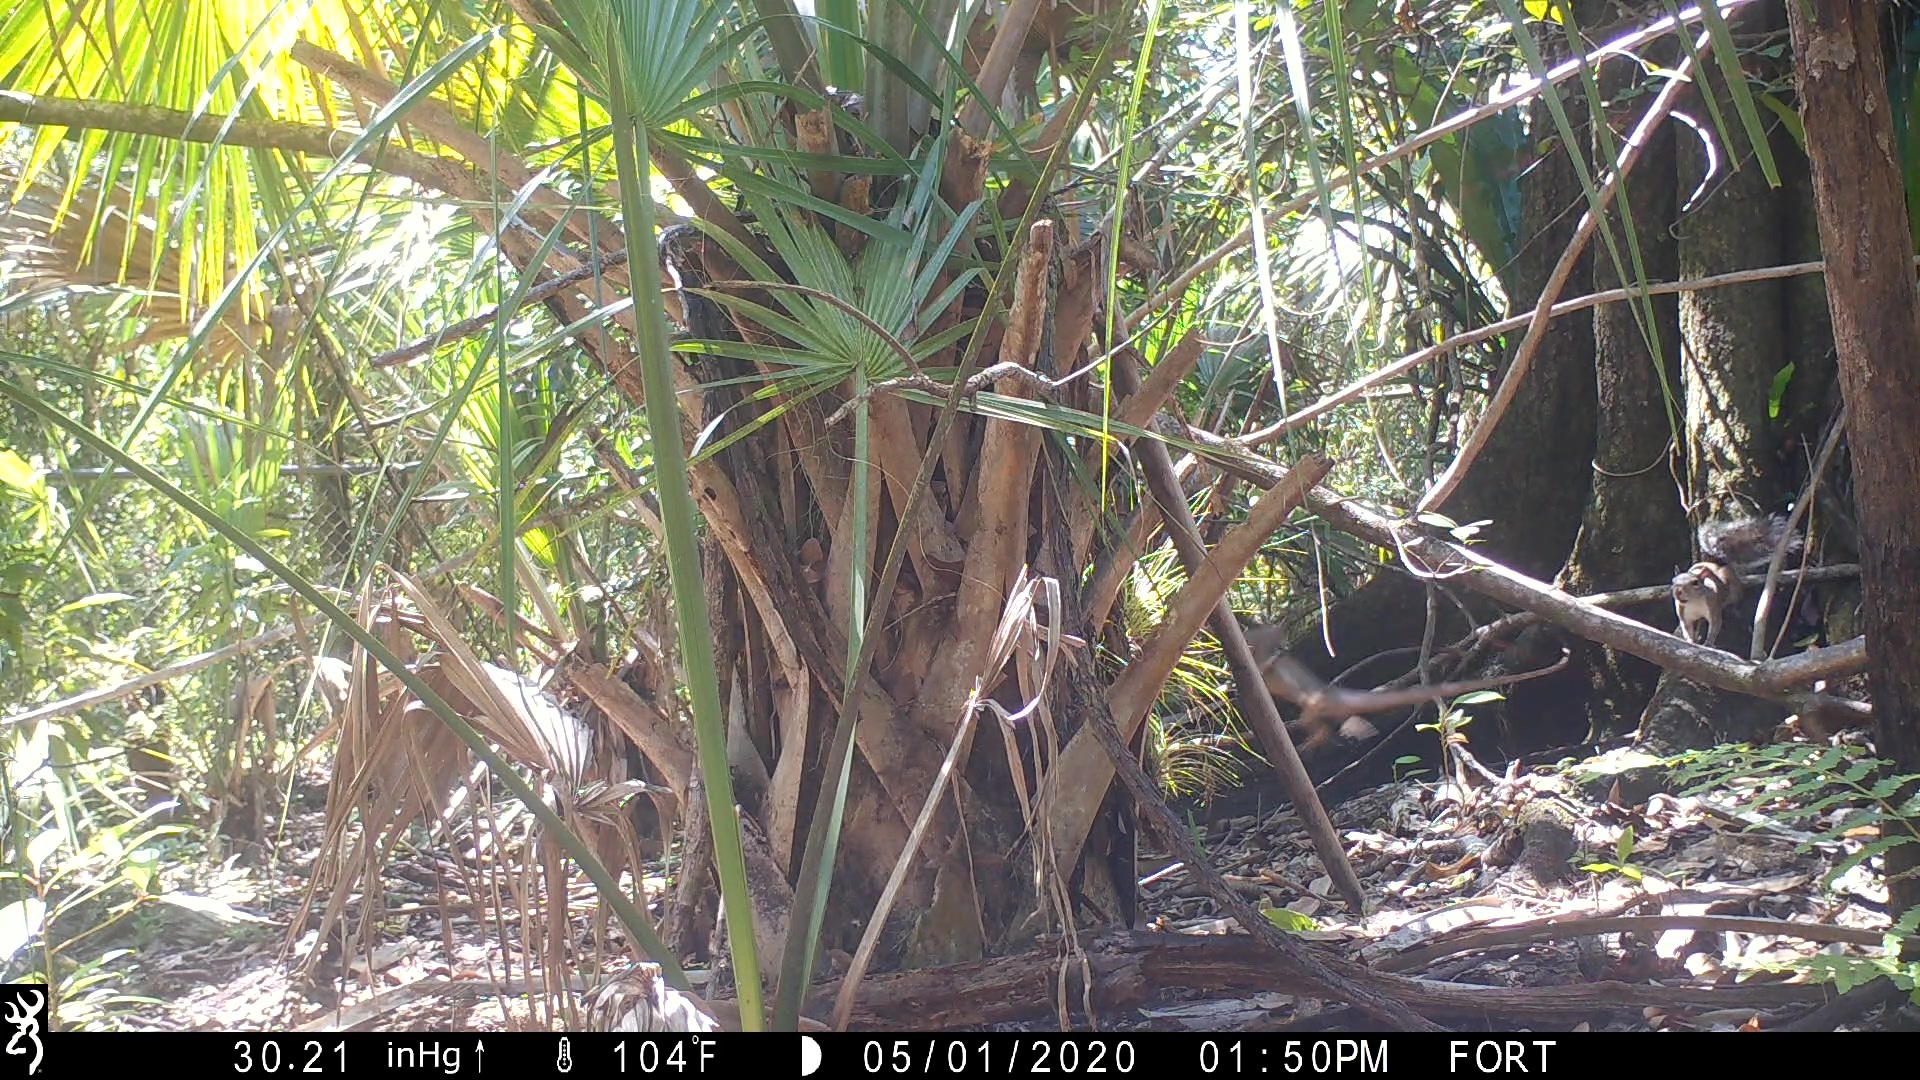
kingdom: Animalia
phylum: Chordata
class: Mammalia
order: Rodentia
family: Sciuridae
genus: Sciurus
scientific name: Sciurus carolinensis
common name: Eastern gray squirrel
